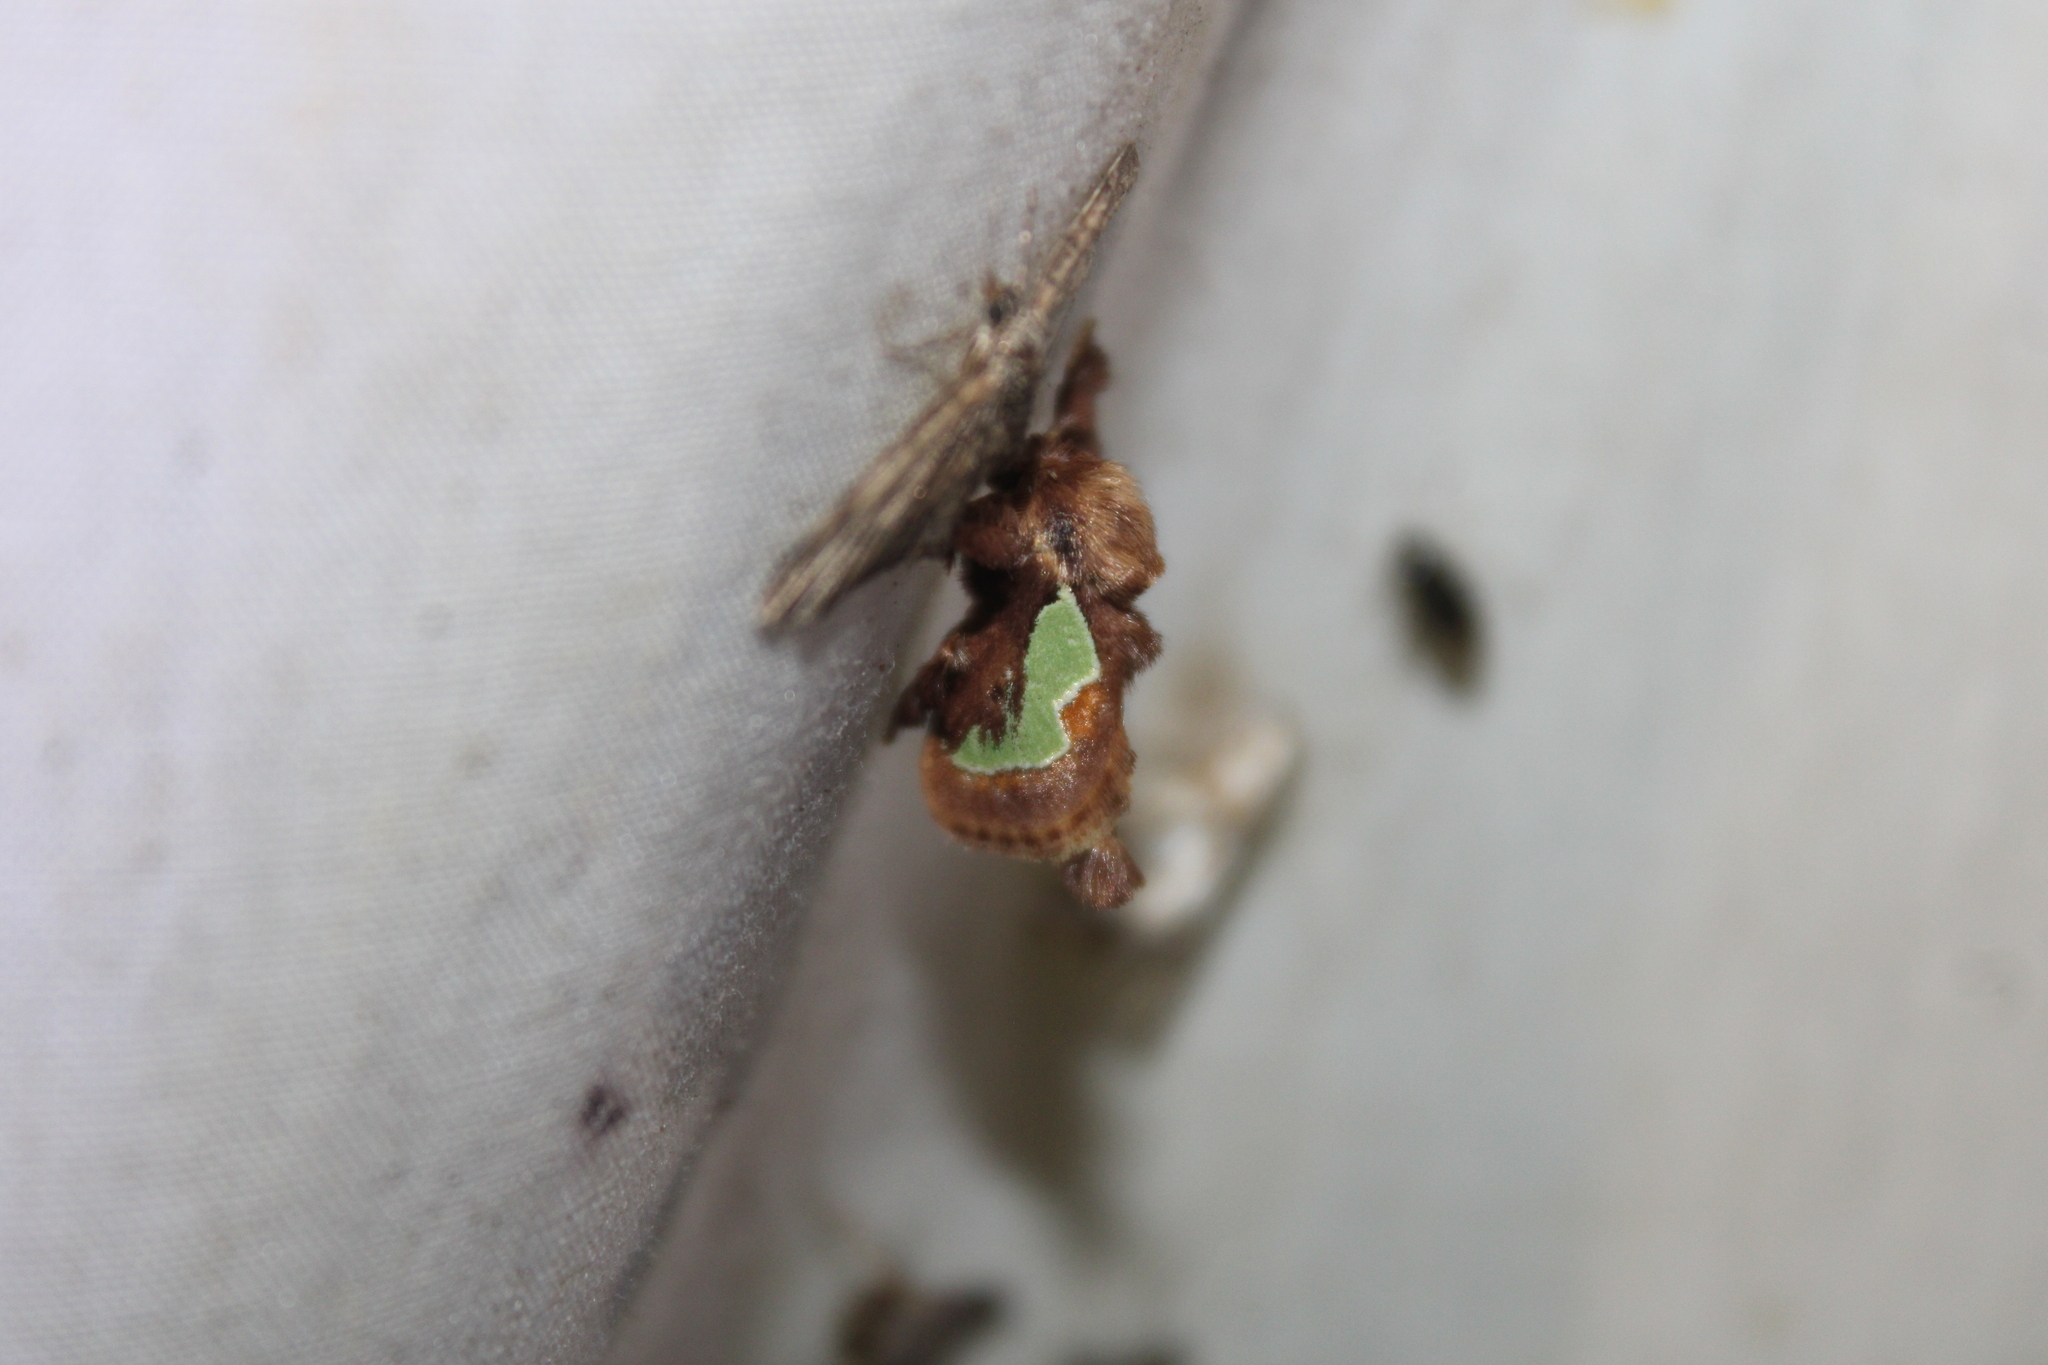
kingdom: Animalia
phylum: Arthropoda
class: Insecta
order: Lepidoptera
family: Limacodidae
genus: Euclea
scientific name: Euclea delphinii
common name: Spiny oak-slug moth
